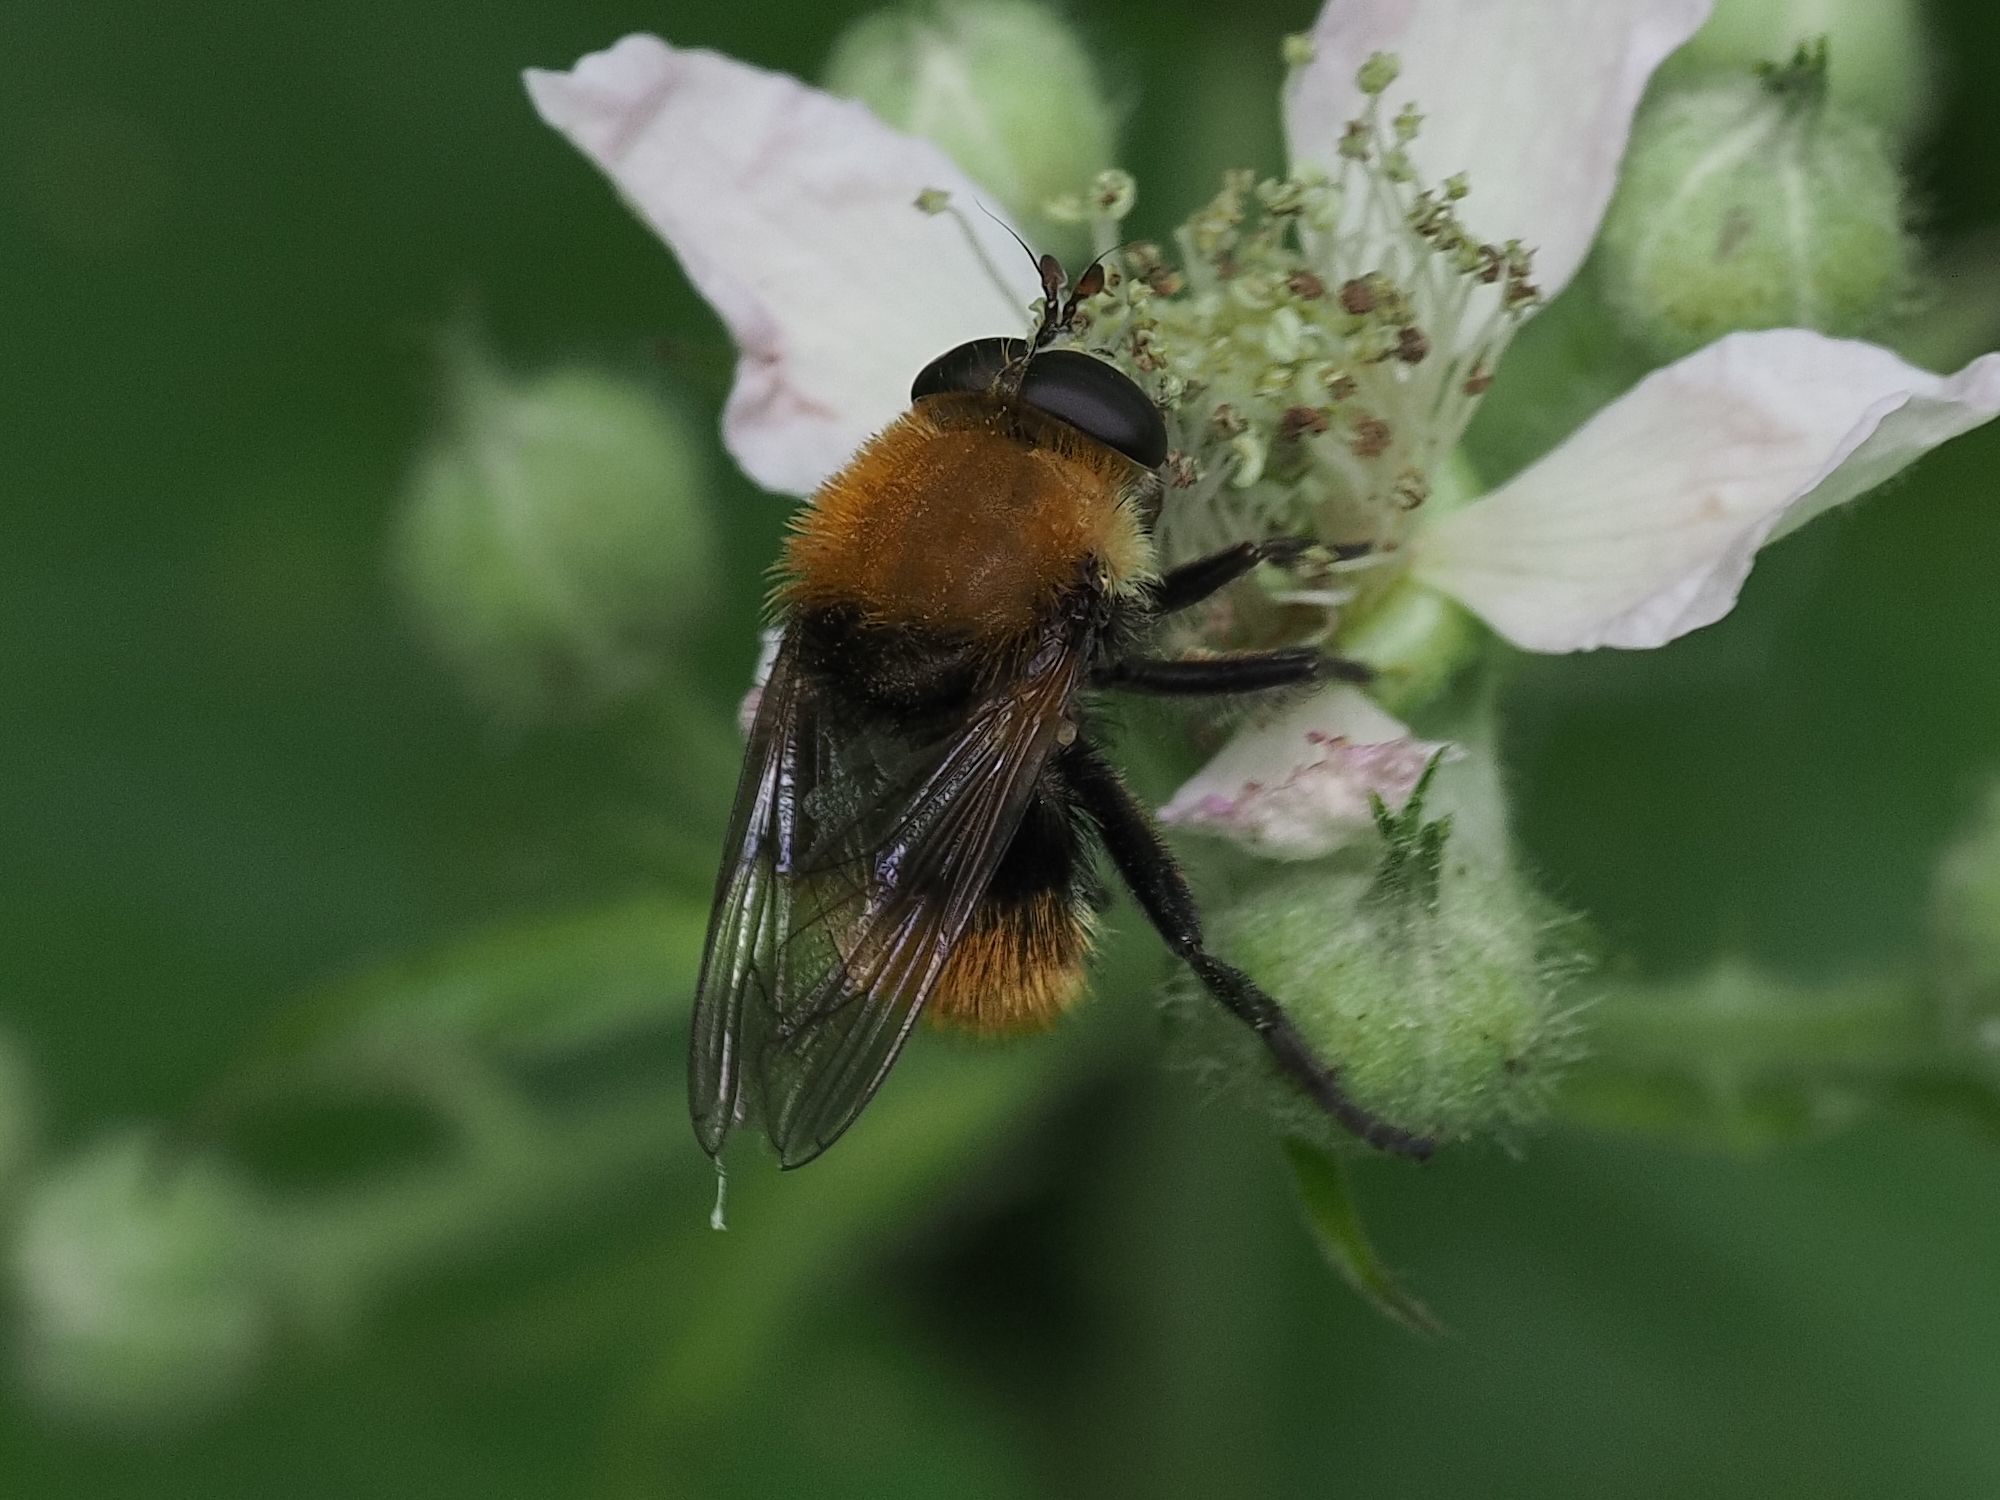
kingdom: Animalia
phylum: Arthropoda
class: Insecta
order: Diptera
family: Syrphidae
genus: Criorhina
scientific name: Criorhina berberina
